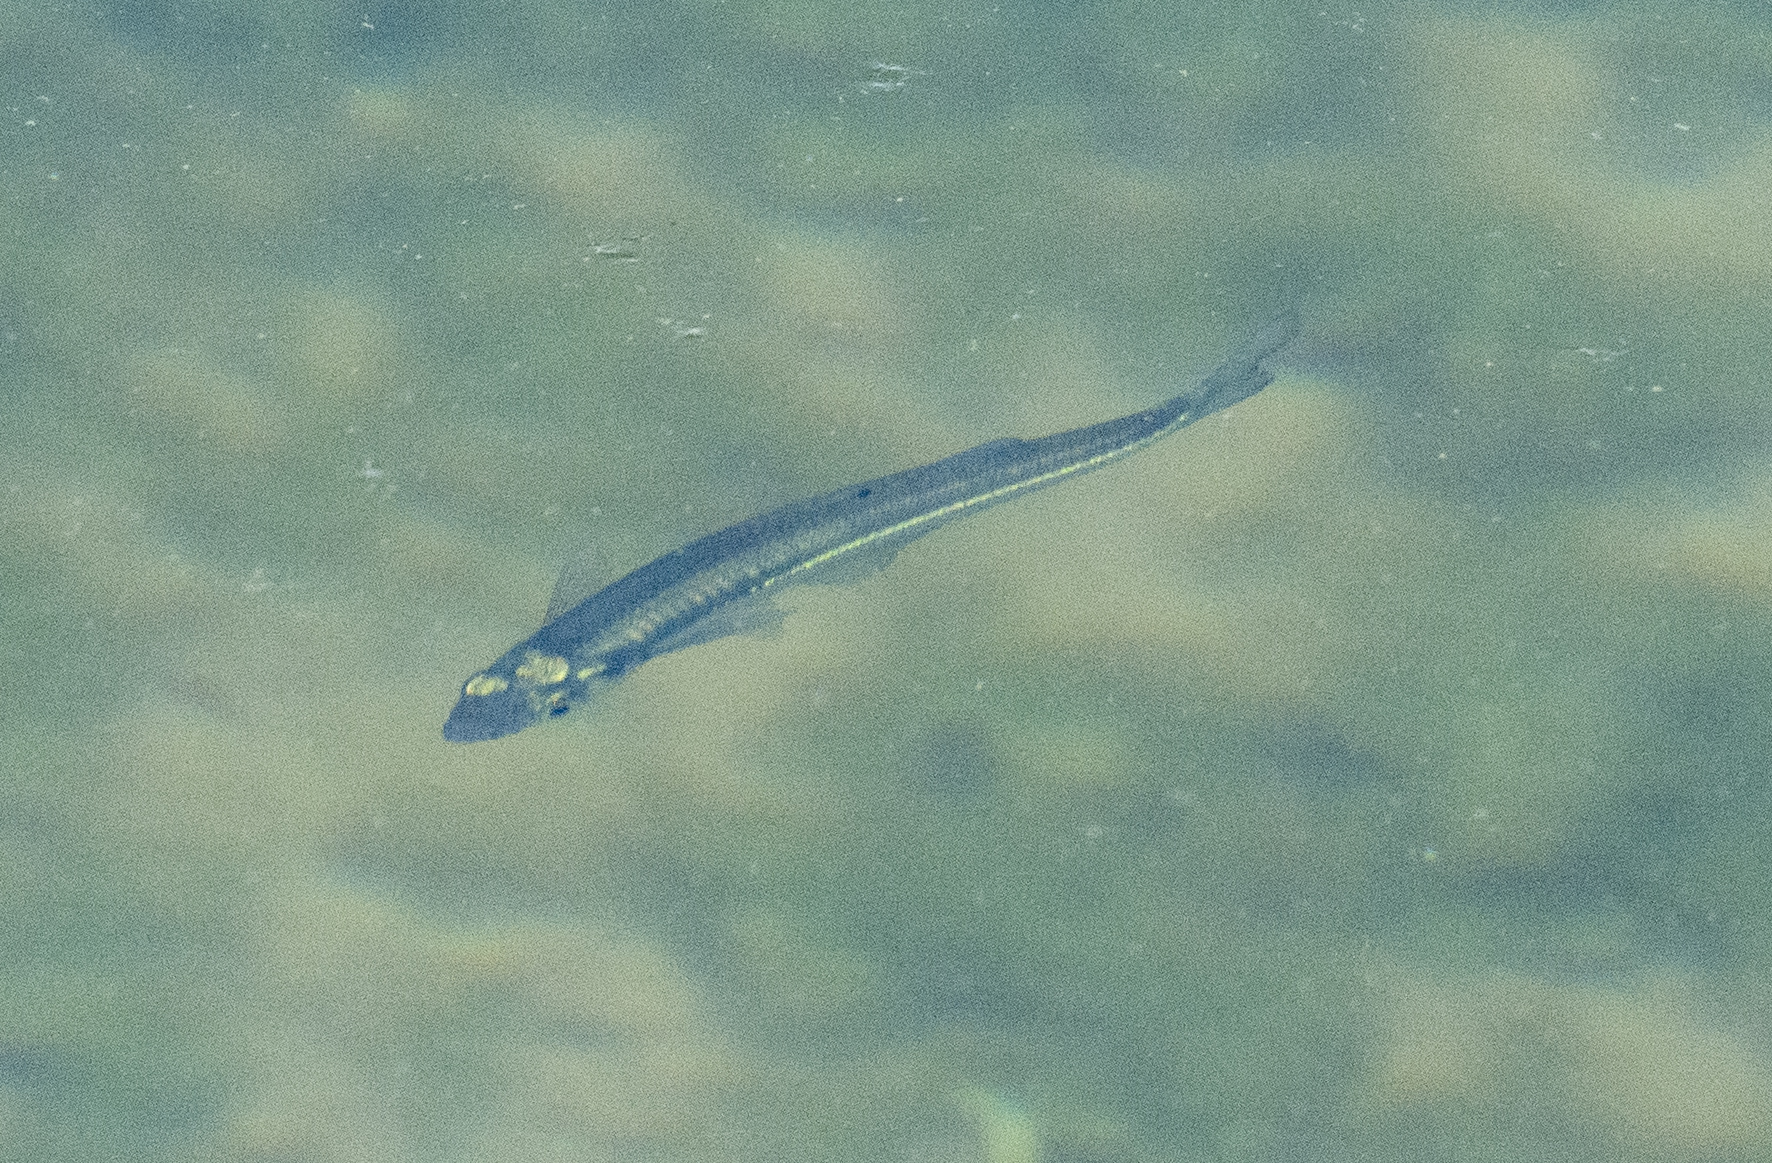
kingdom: Animalia
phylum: Chordata
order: Atheriniformes
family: Atherinopsidae
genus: Labidesthes
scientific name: Labidesthes sicculus
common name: Brook silverside
